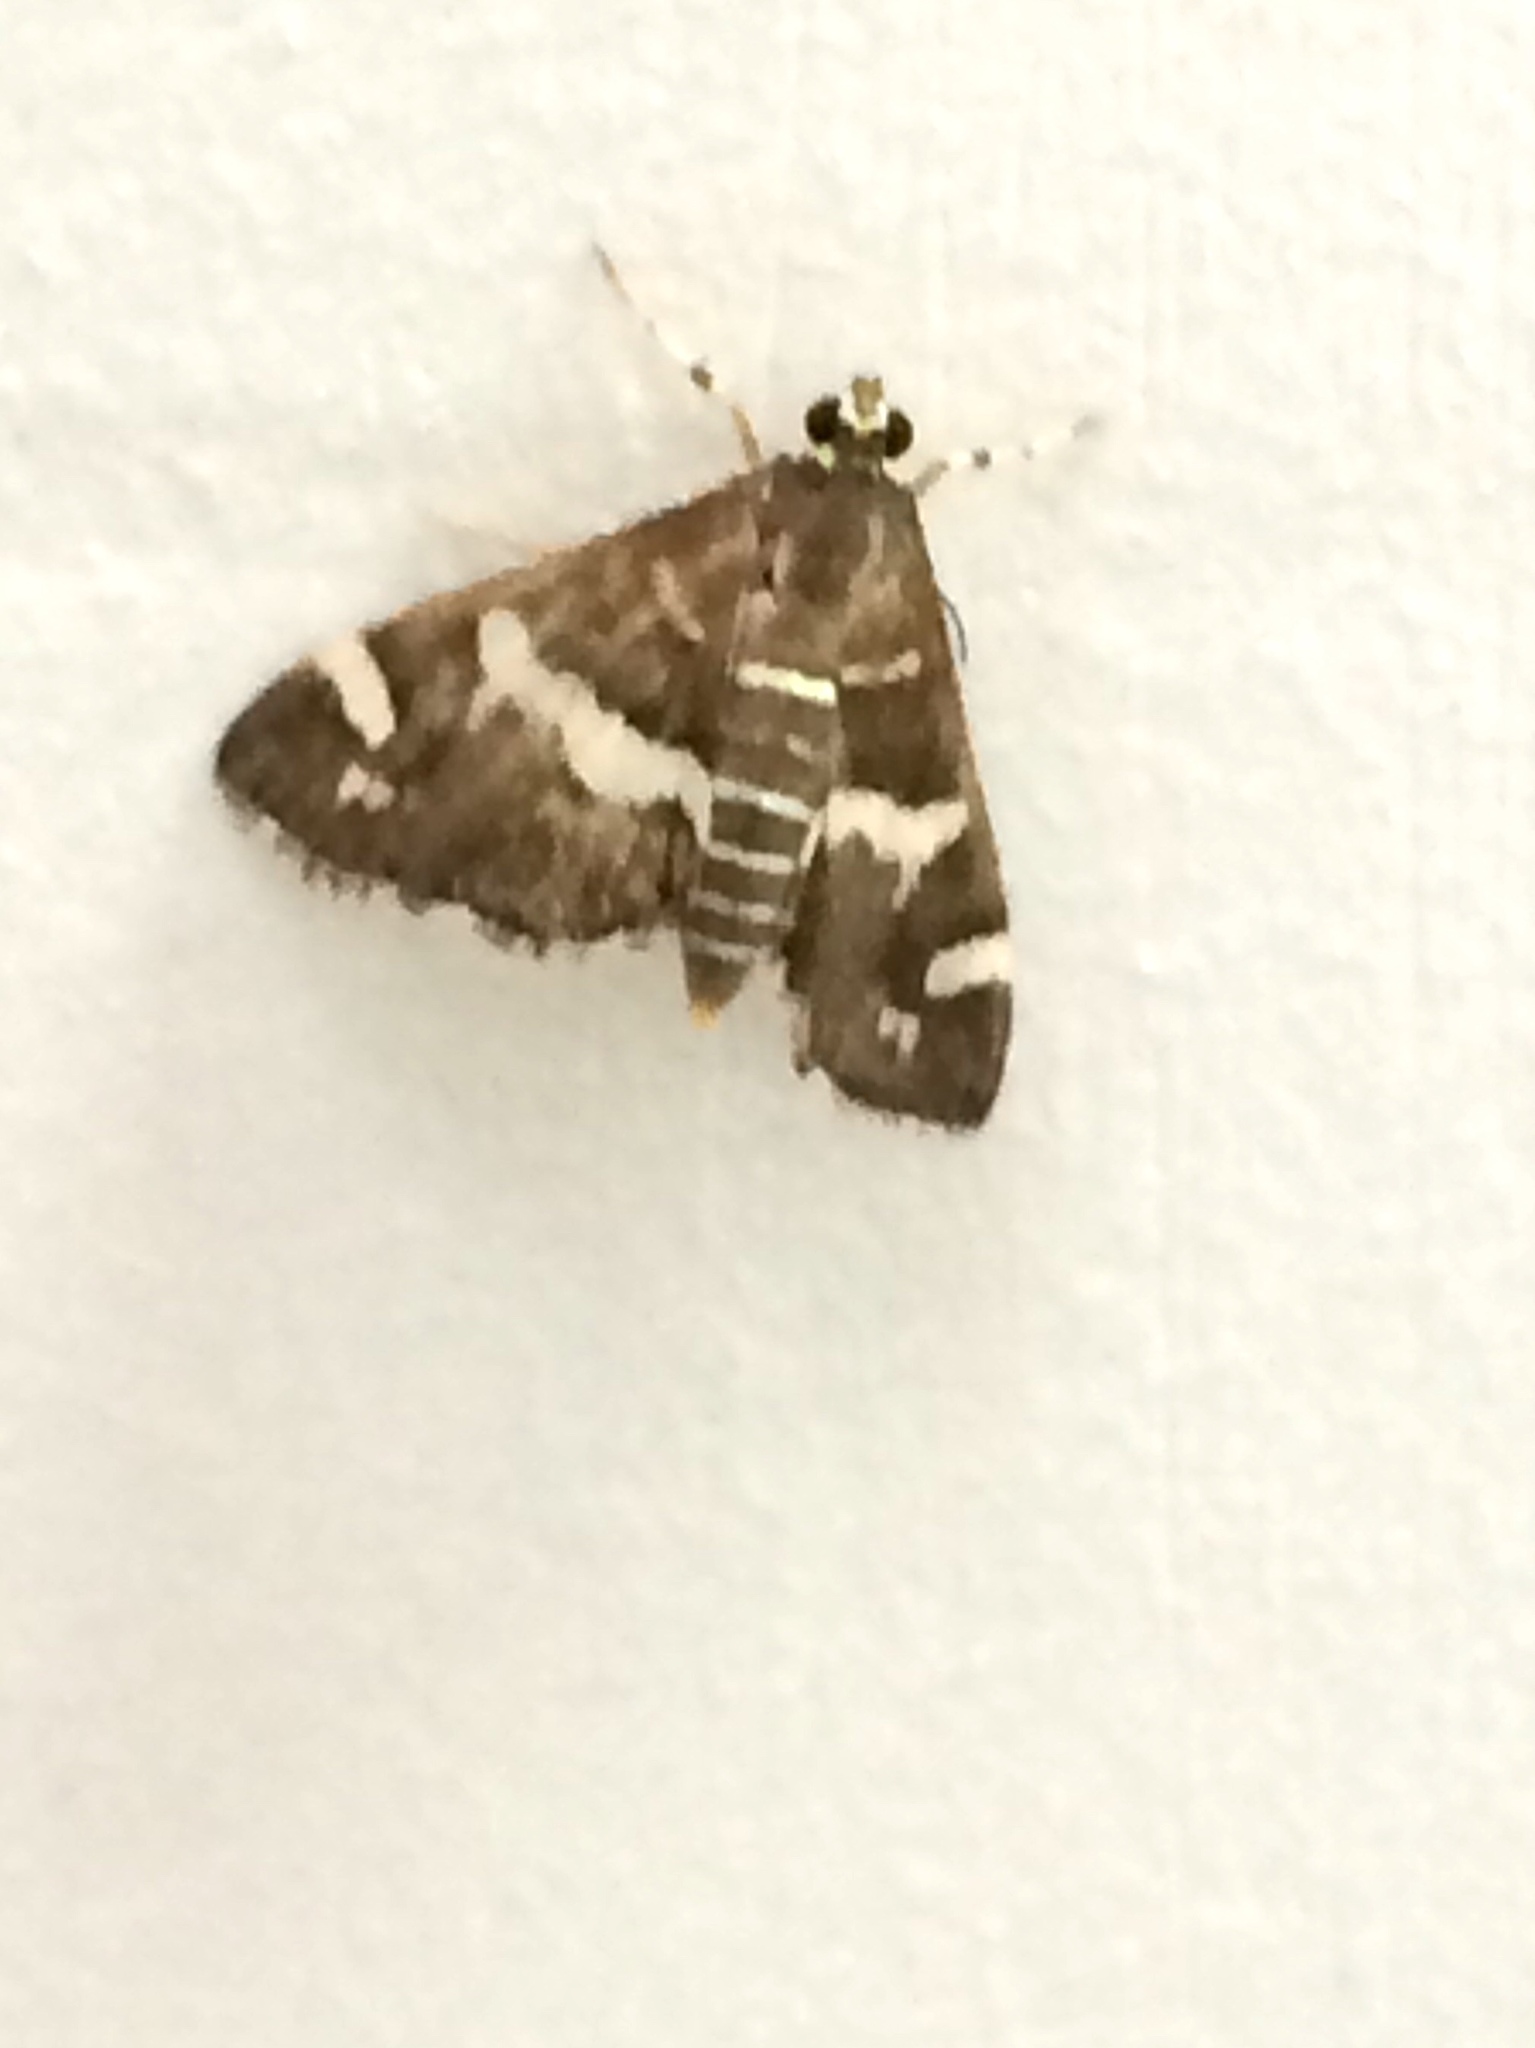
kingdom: Animalia
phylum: Arthropoda
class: Insecta
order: Lepidoptera
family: Crambidae
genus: Spoladea
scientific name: Spoladea recurvalis
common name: Beet webworm moth
